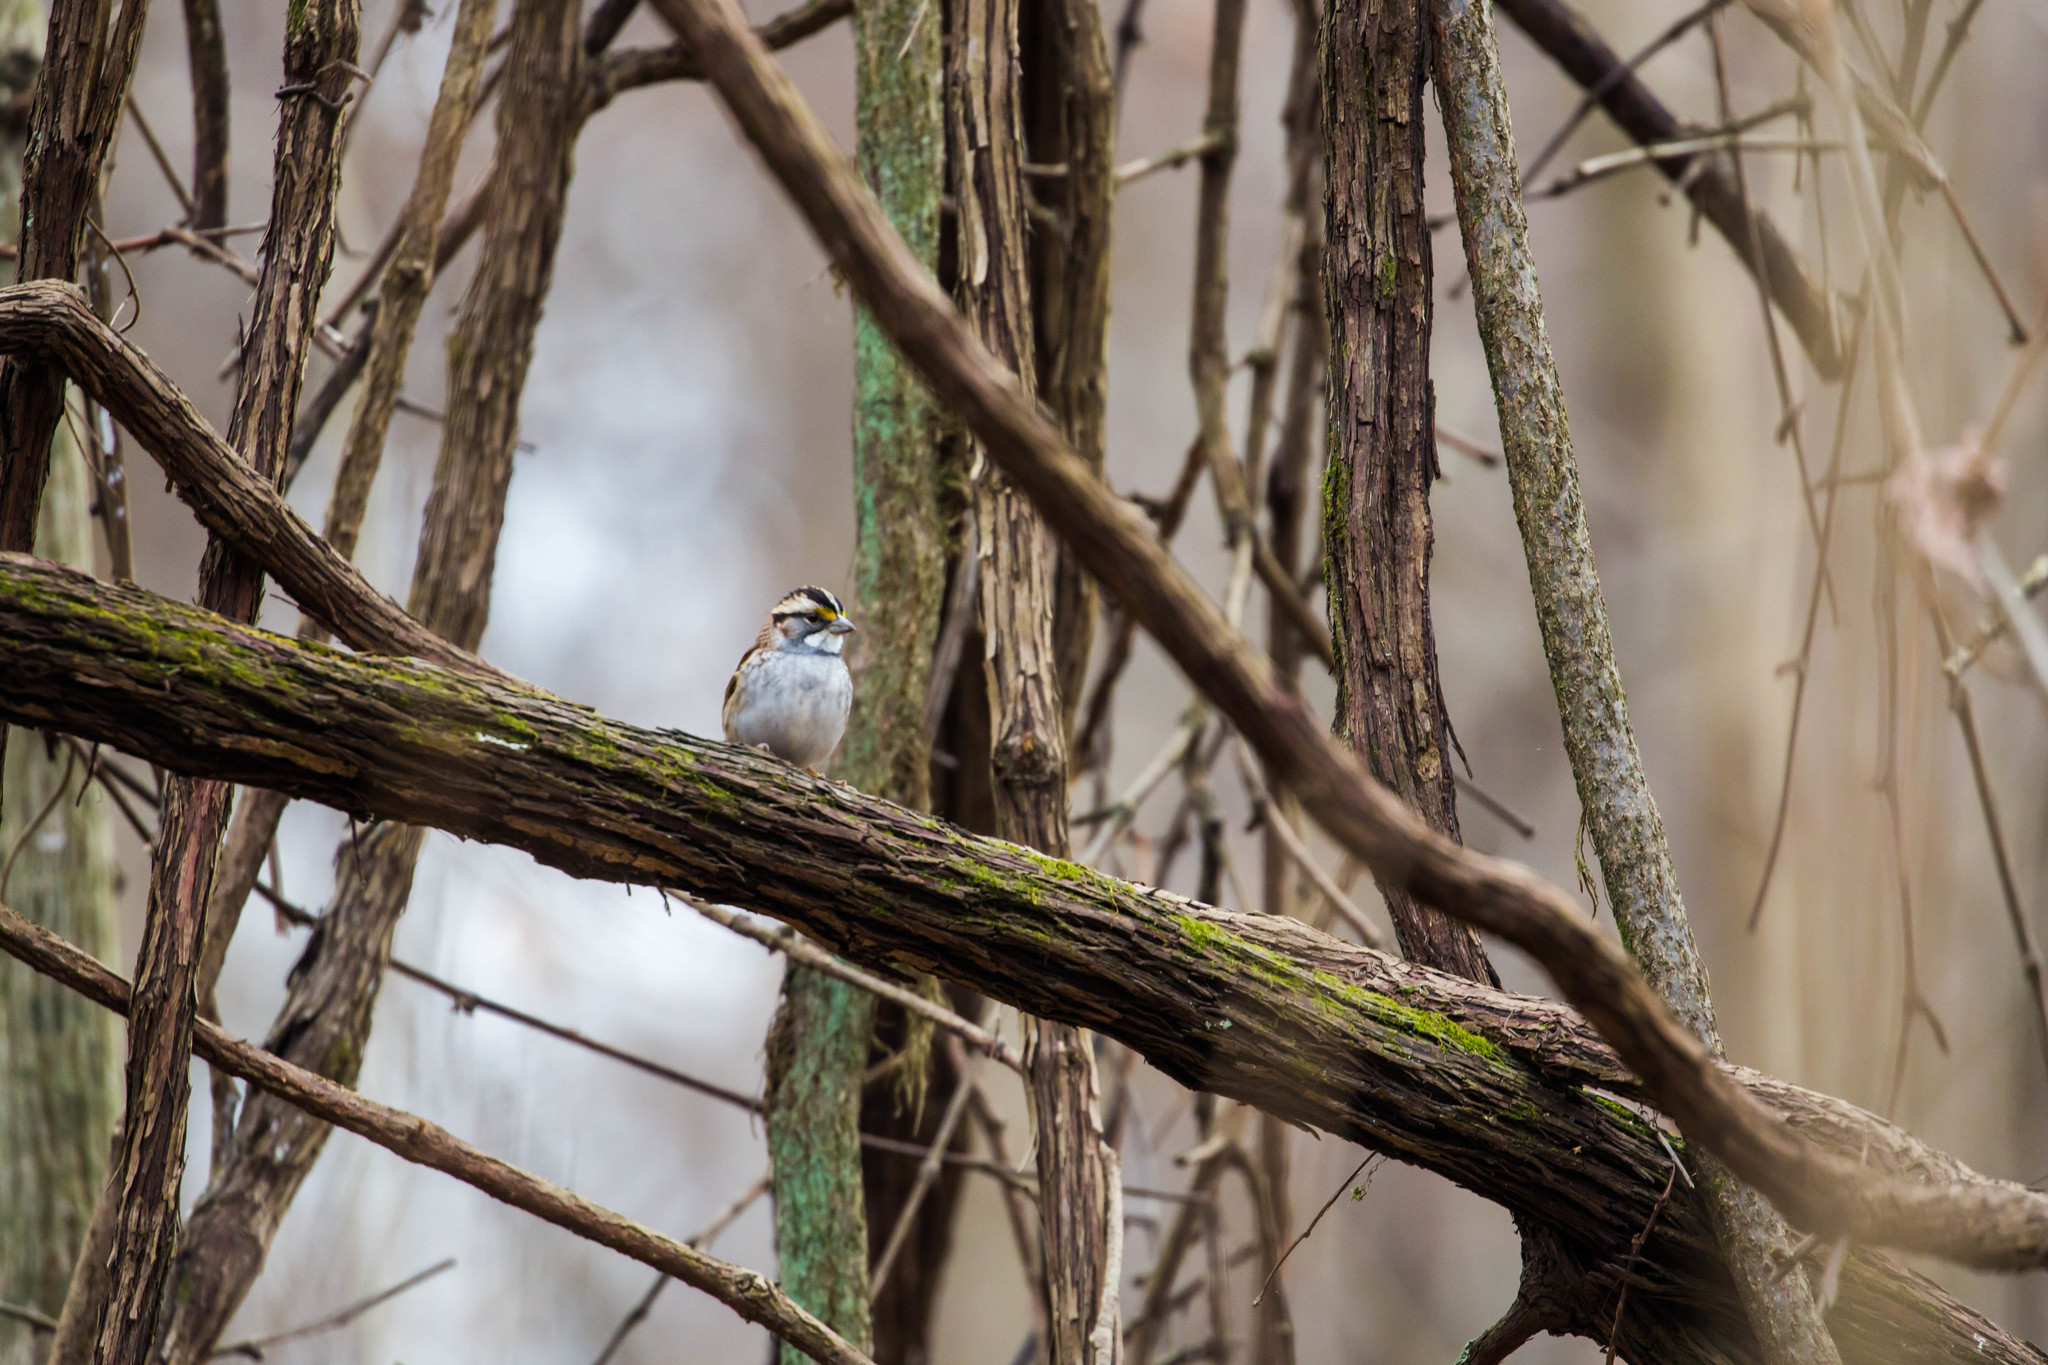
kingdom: Animalia
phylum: Chordata
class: Aves
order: Passeriformes
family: Passerellidae
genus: Zonotrichia
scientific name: Zonotrichia albicollis
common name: White-throated sparrow
